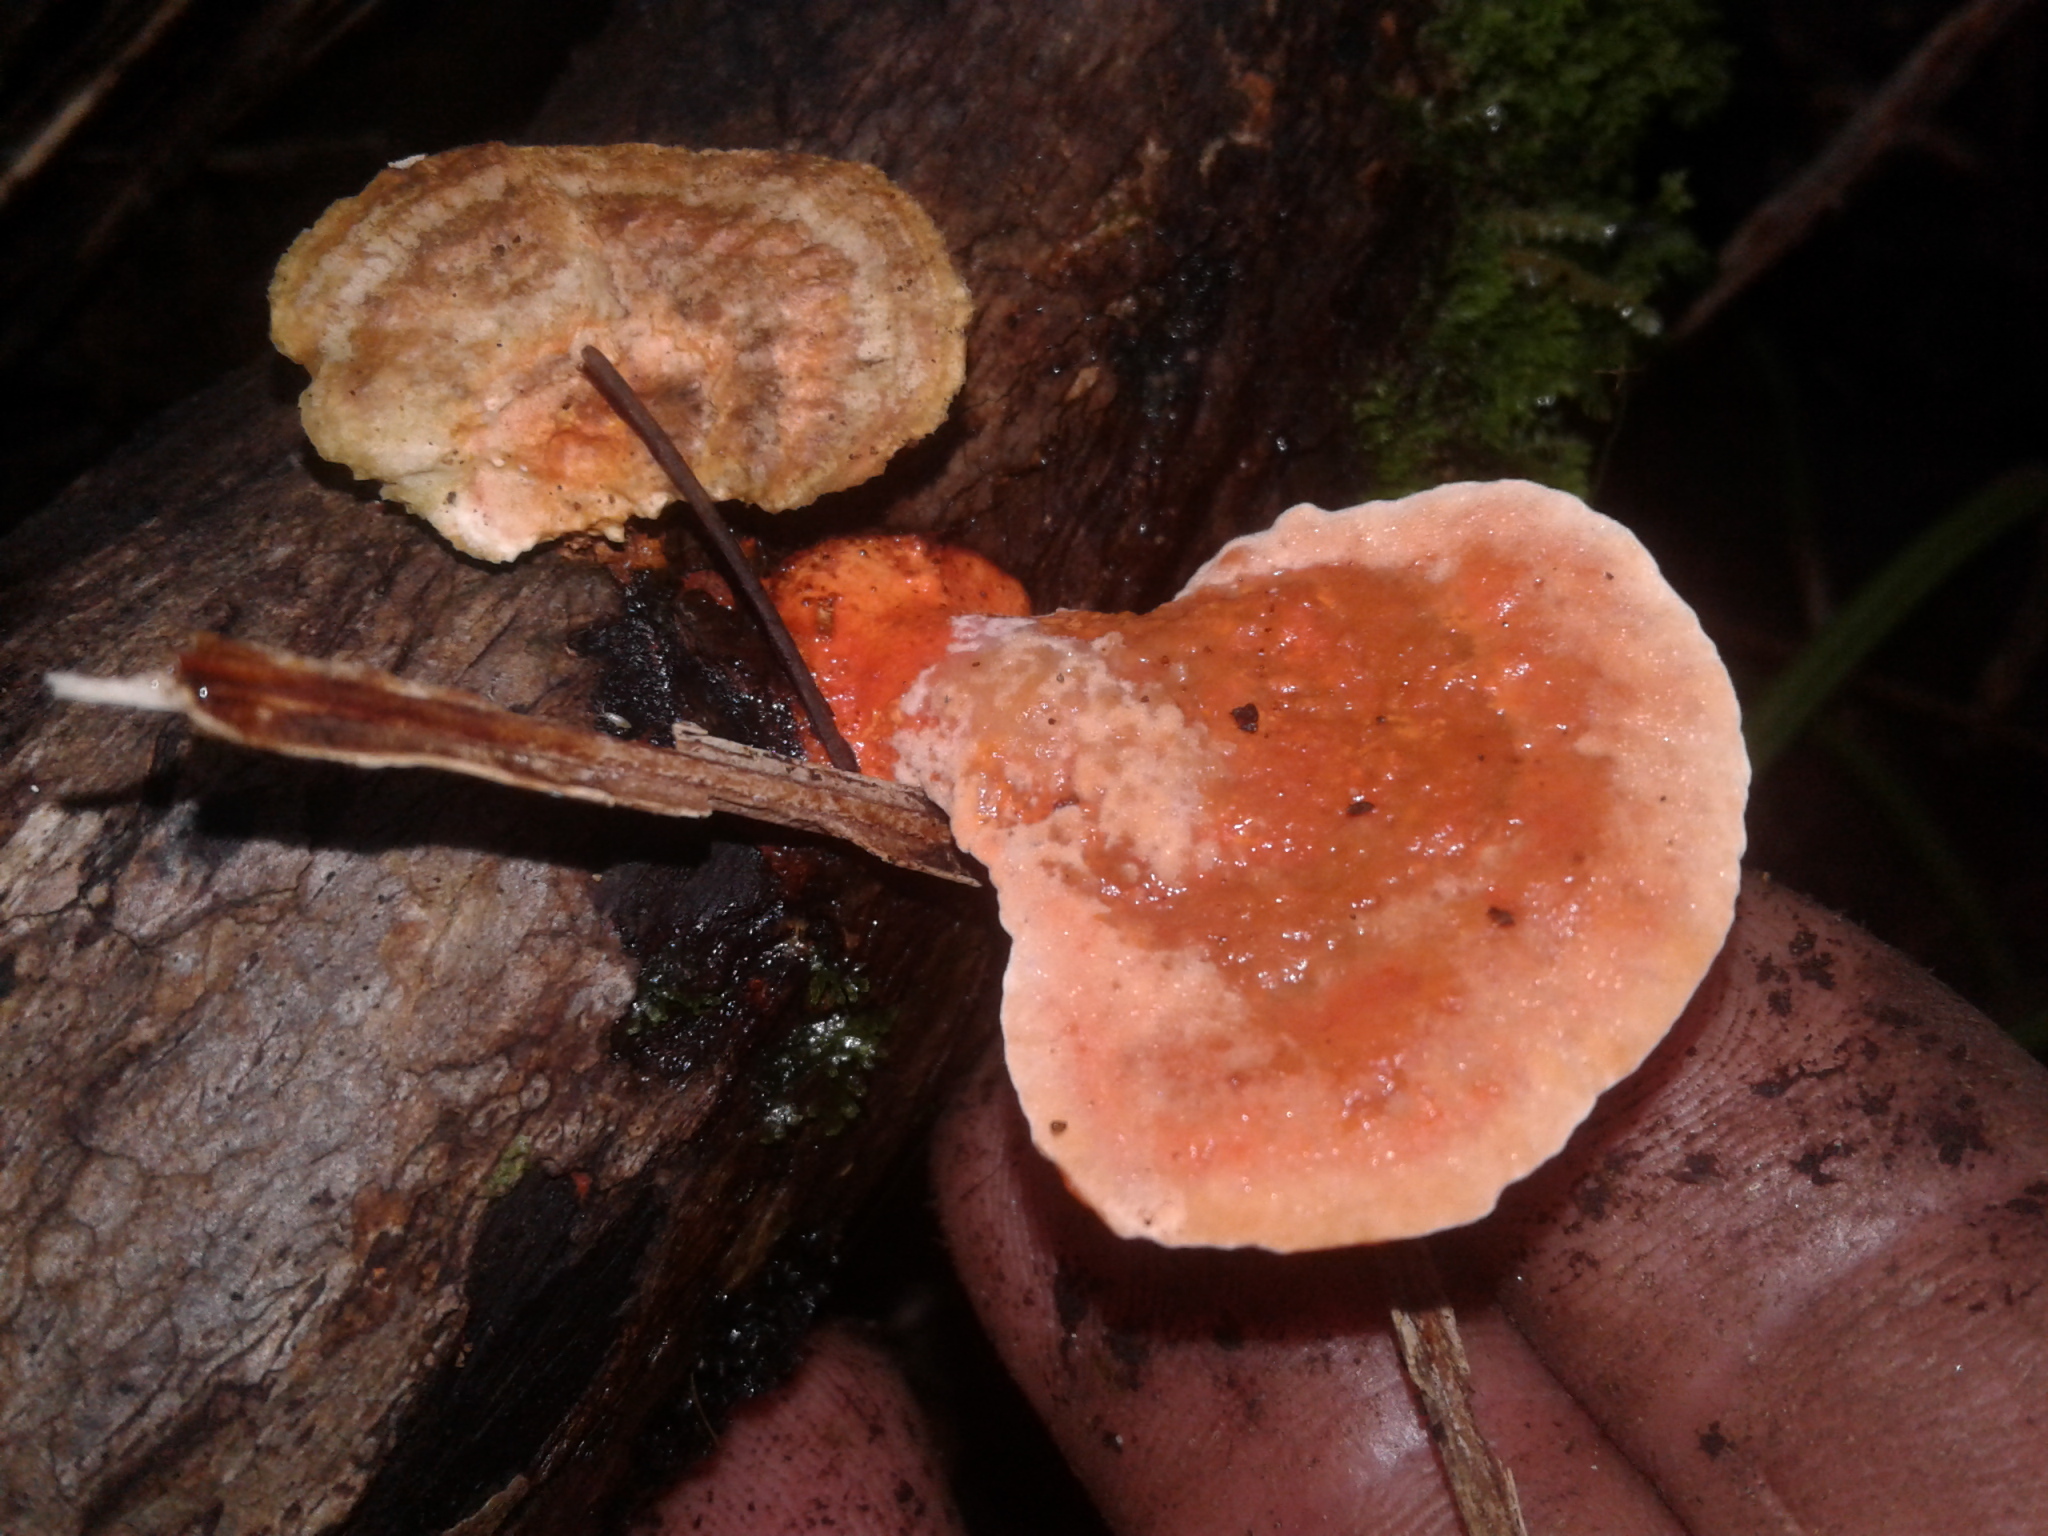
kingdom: Fungi
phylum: Basidiomycota
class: Agaricomycetes
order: Polyporales
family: Polyporaceae
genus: Trametes
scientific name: Trametes coccinea
